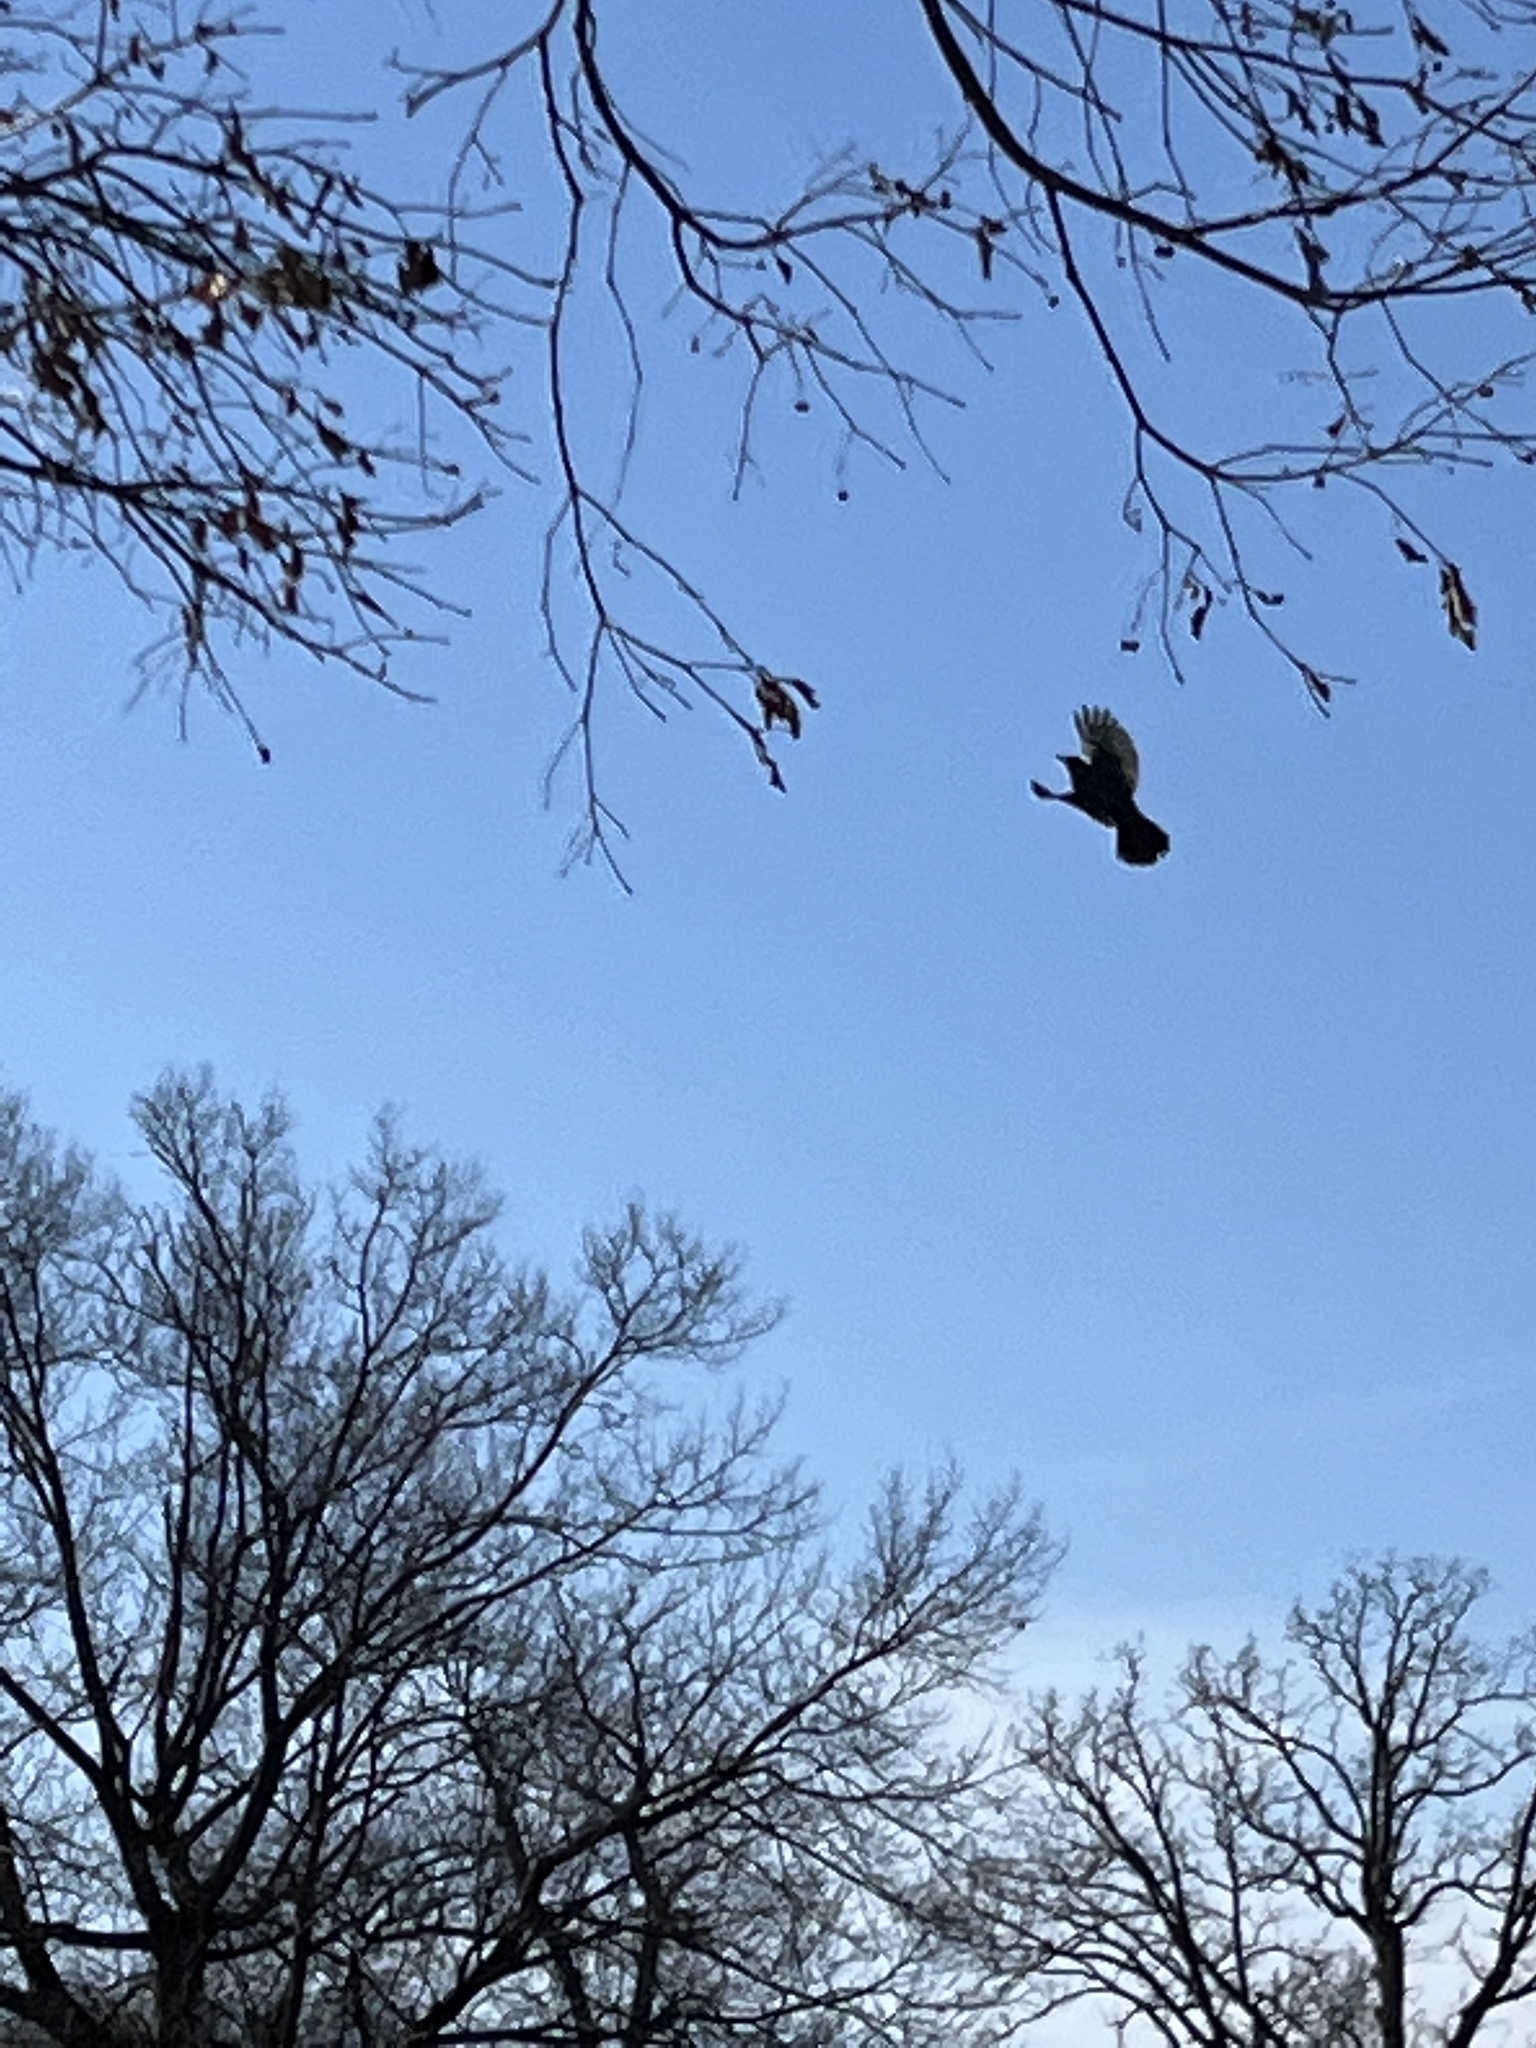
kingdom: Animalia
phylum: Chordata
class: Aves
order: Passeriformes
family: Turdidae
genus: Turdus
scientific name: Turdus migratorius
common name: American robin
